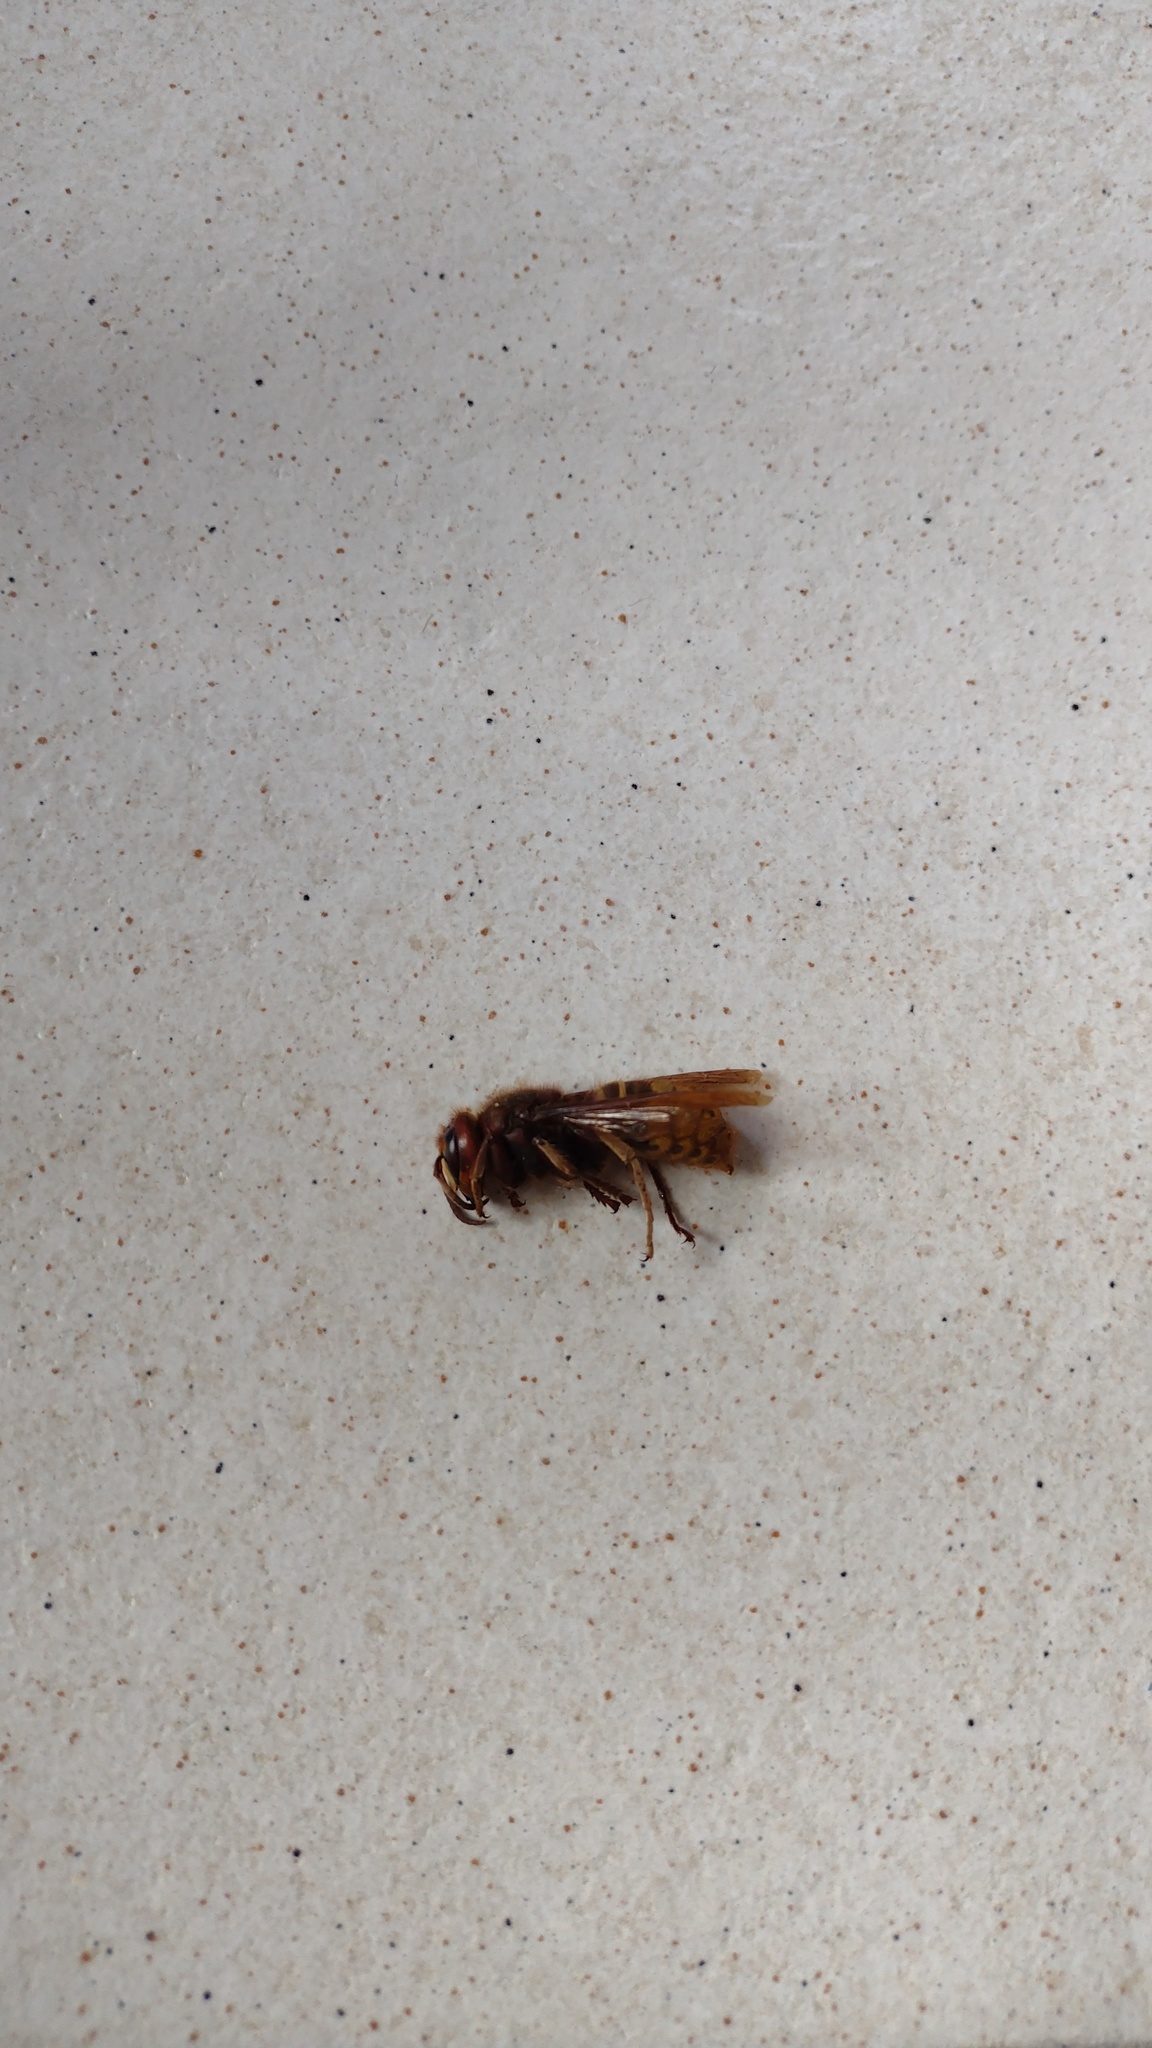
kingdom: Animalia
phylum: Arthropoda
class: Insecta
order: Hymenoptera
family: Vespidae
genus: Vespa
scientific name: Vespa crabro
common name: Hornet
